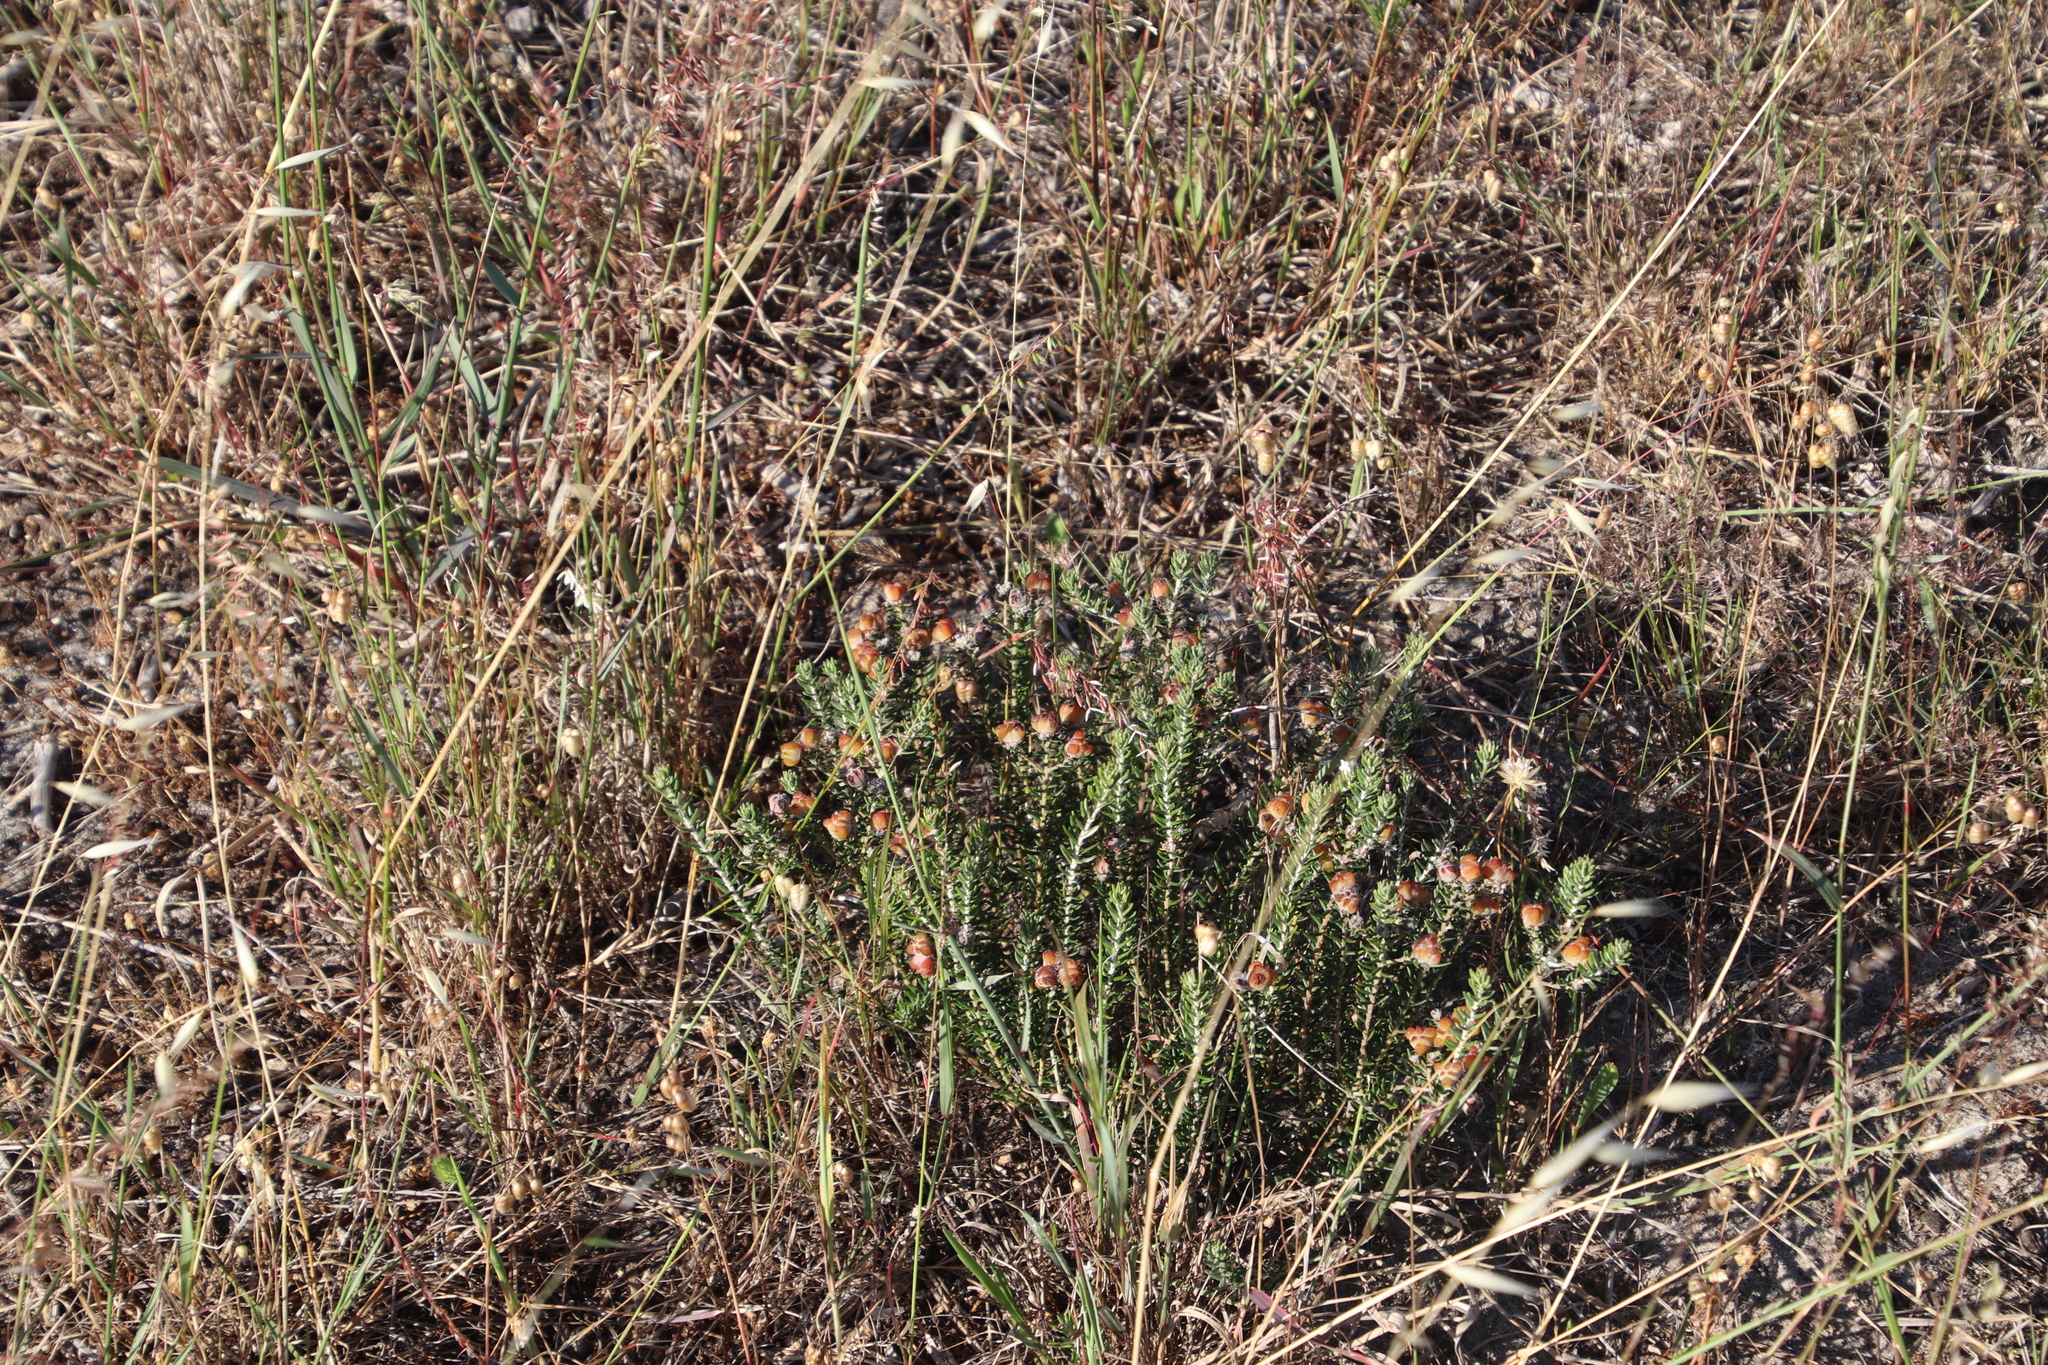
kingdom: Plantae
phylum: Tracheophyta
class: Magnoliopsida
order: Rosales
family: Rhamnaceae
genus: Trichocephalus
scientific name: Trichocephalus stipularis
